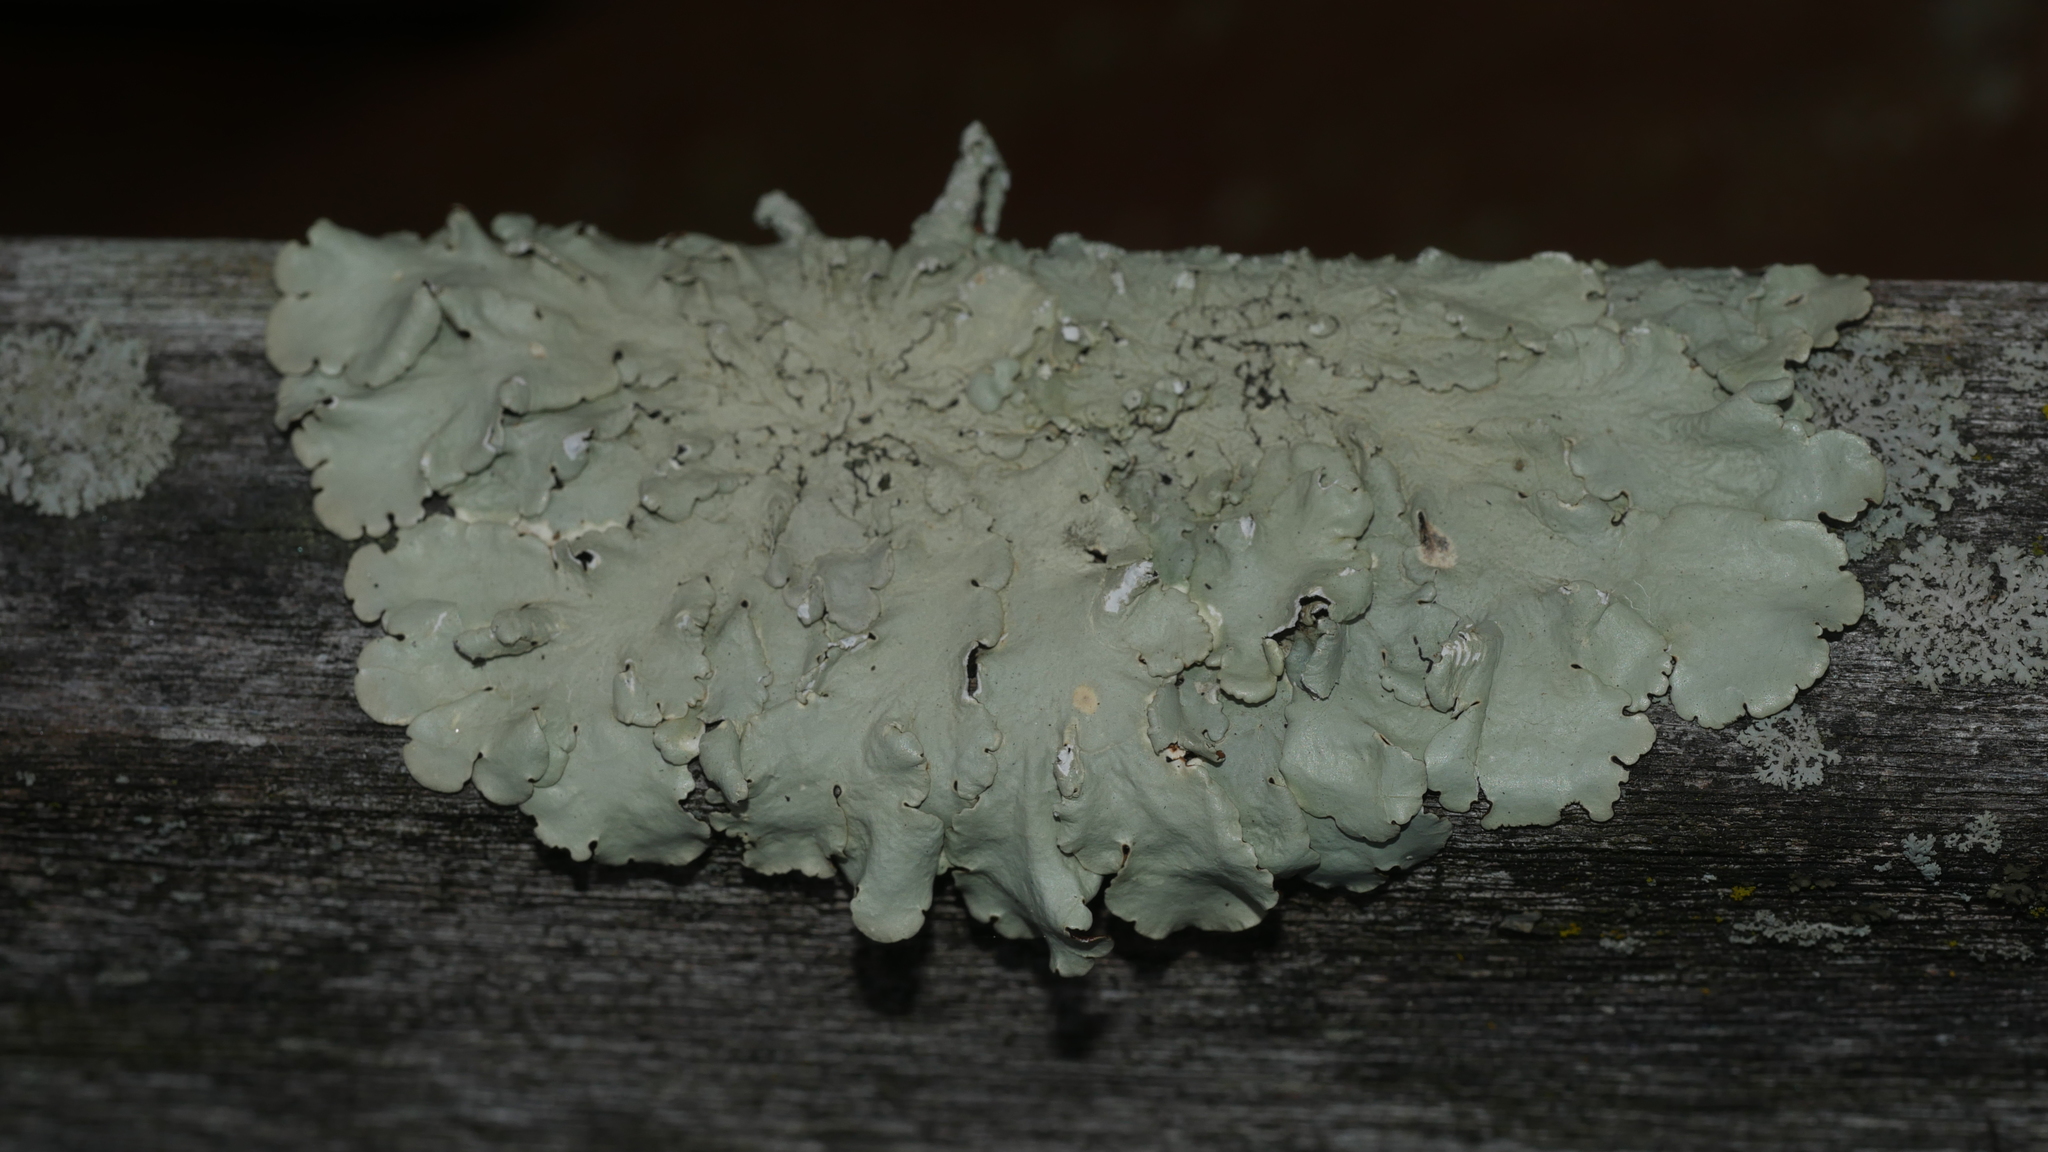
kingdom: Fungi
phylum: Ascomycota
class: Lecanoromycetes
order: Lecanorales
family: Parmeliaceae
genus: Flavoparmelia
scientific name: Flavoparmelia caperata
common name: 40-mile per hour lichen
